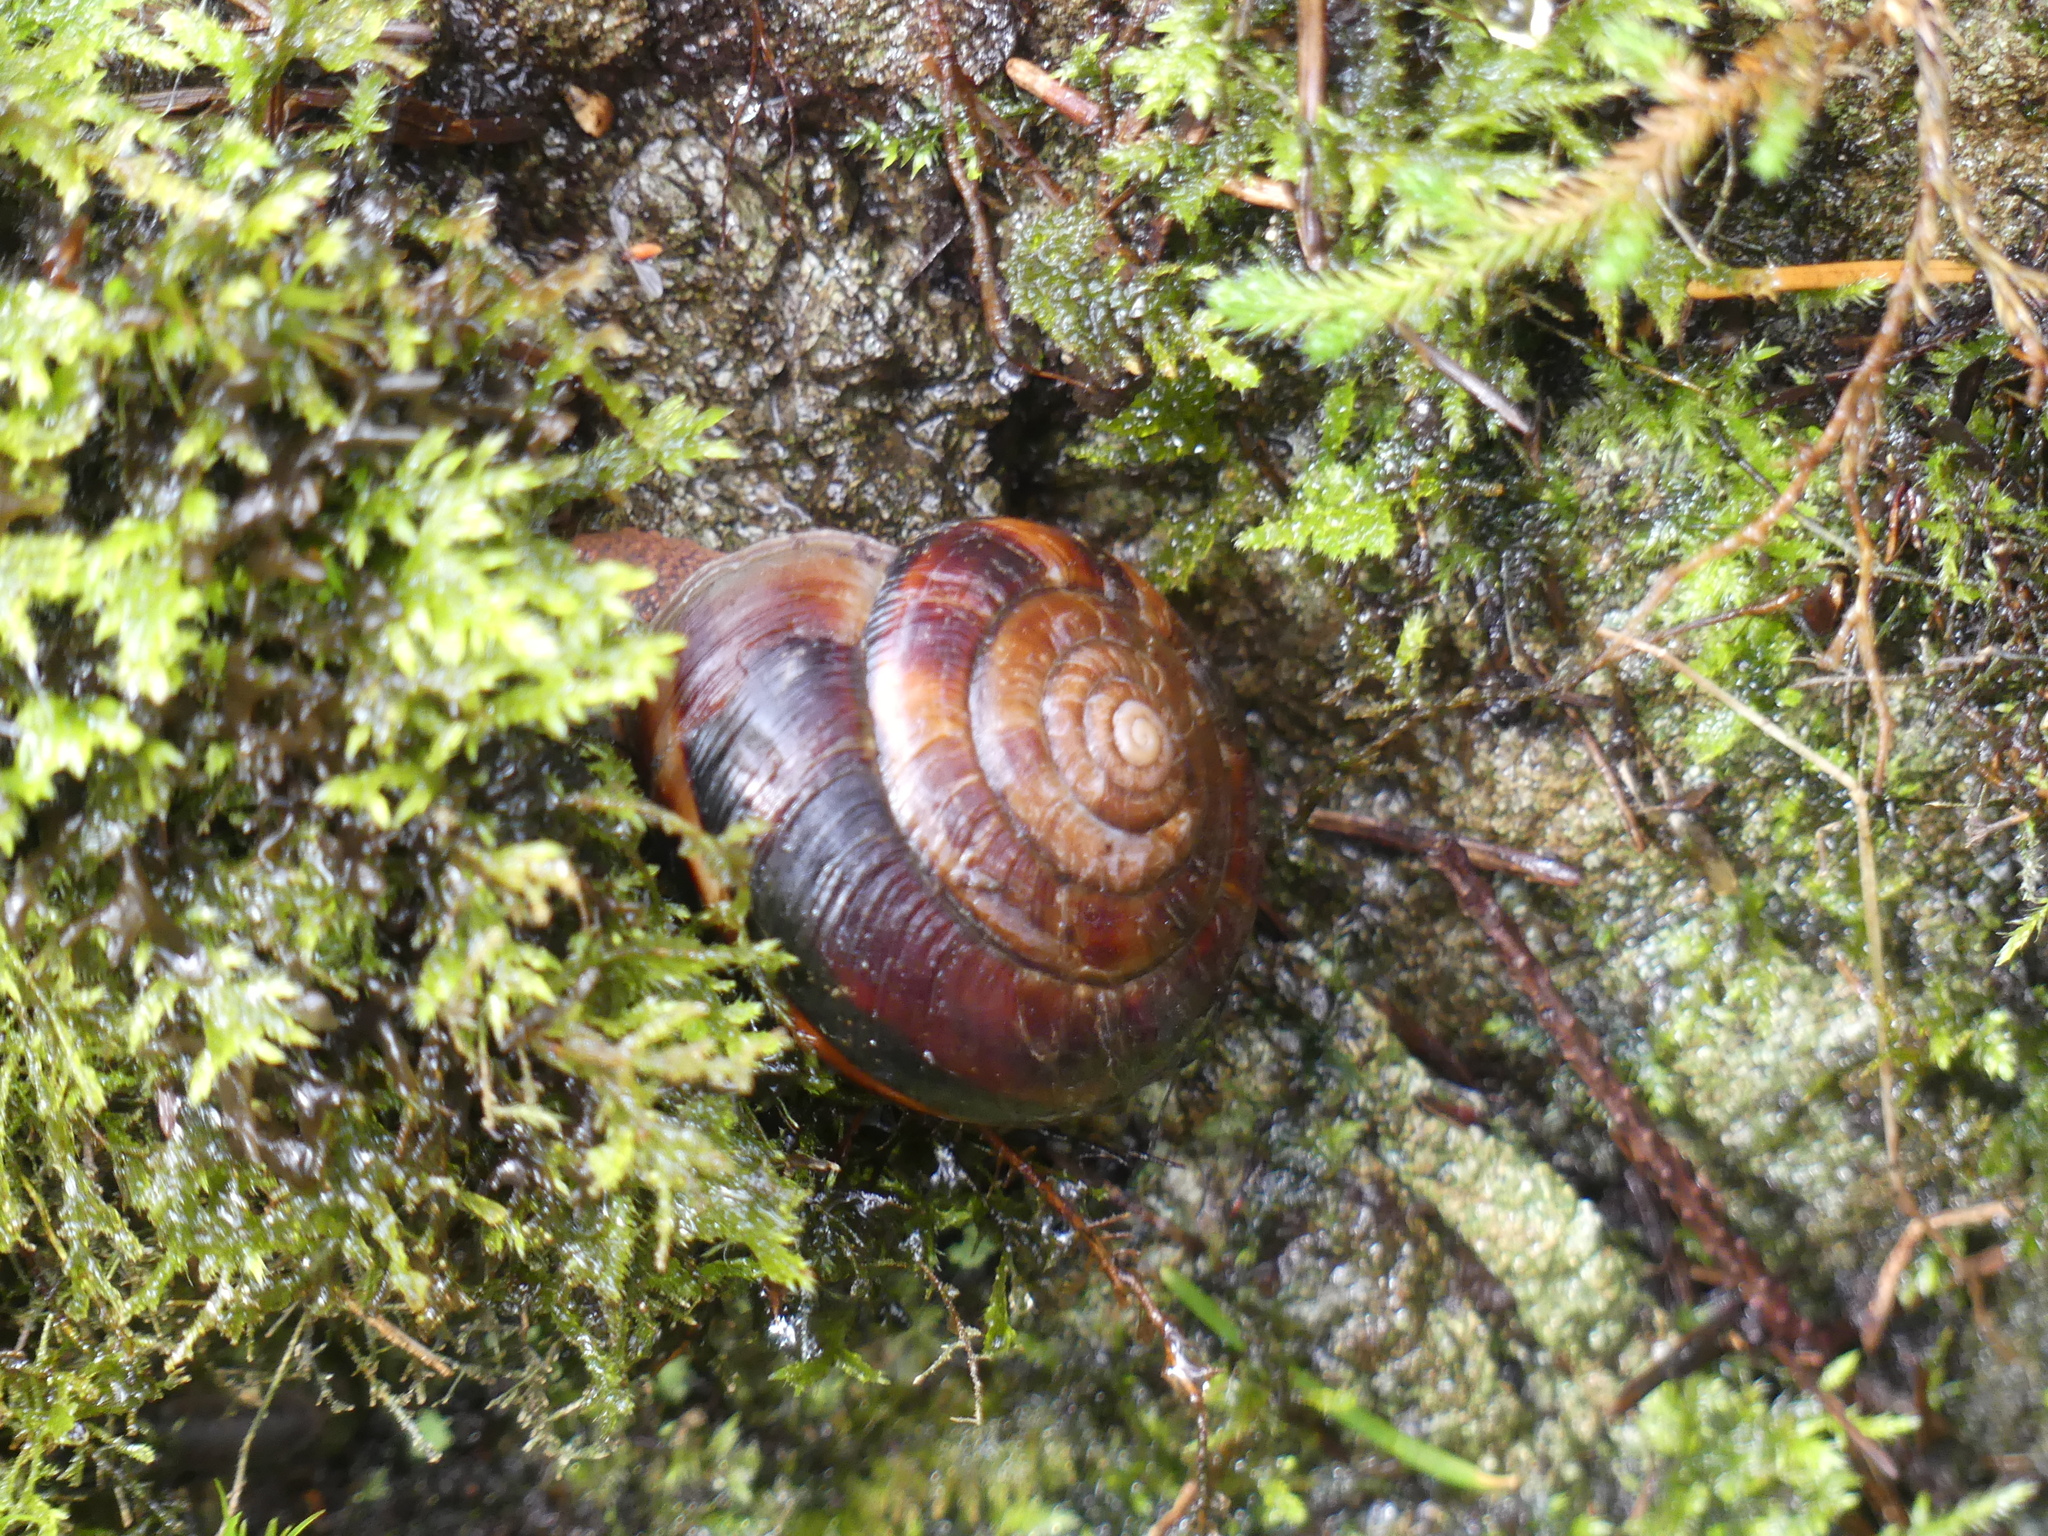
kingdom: Animalia
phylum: Mollusca
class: Gastropoda
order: Stylommatophora
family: Xanthonychidae
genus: Monadenia
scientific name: Monadenia fidelis
